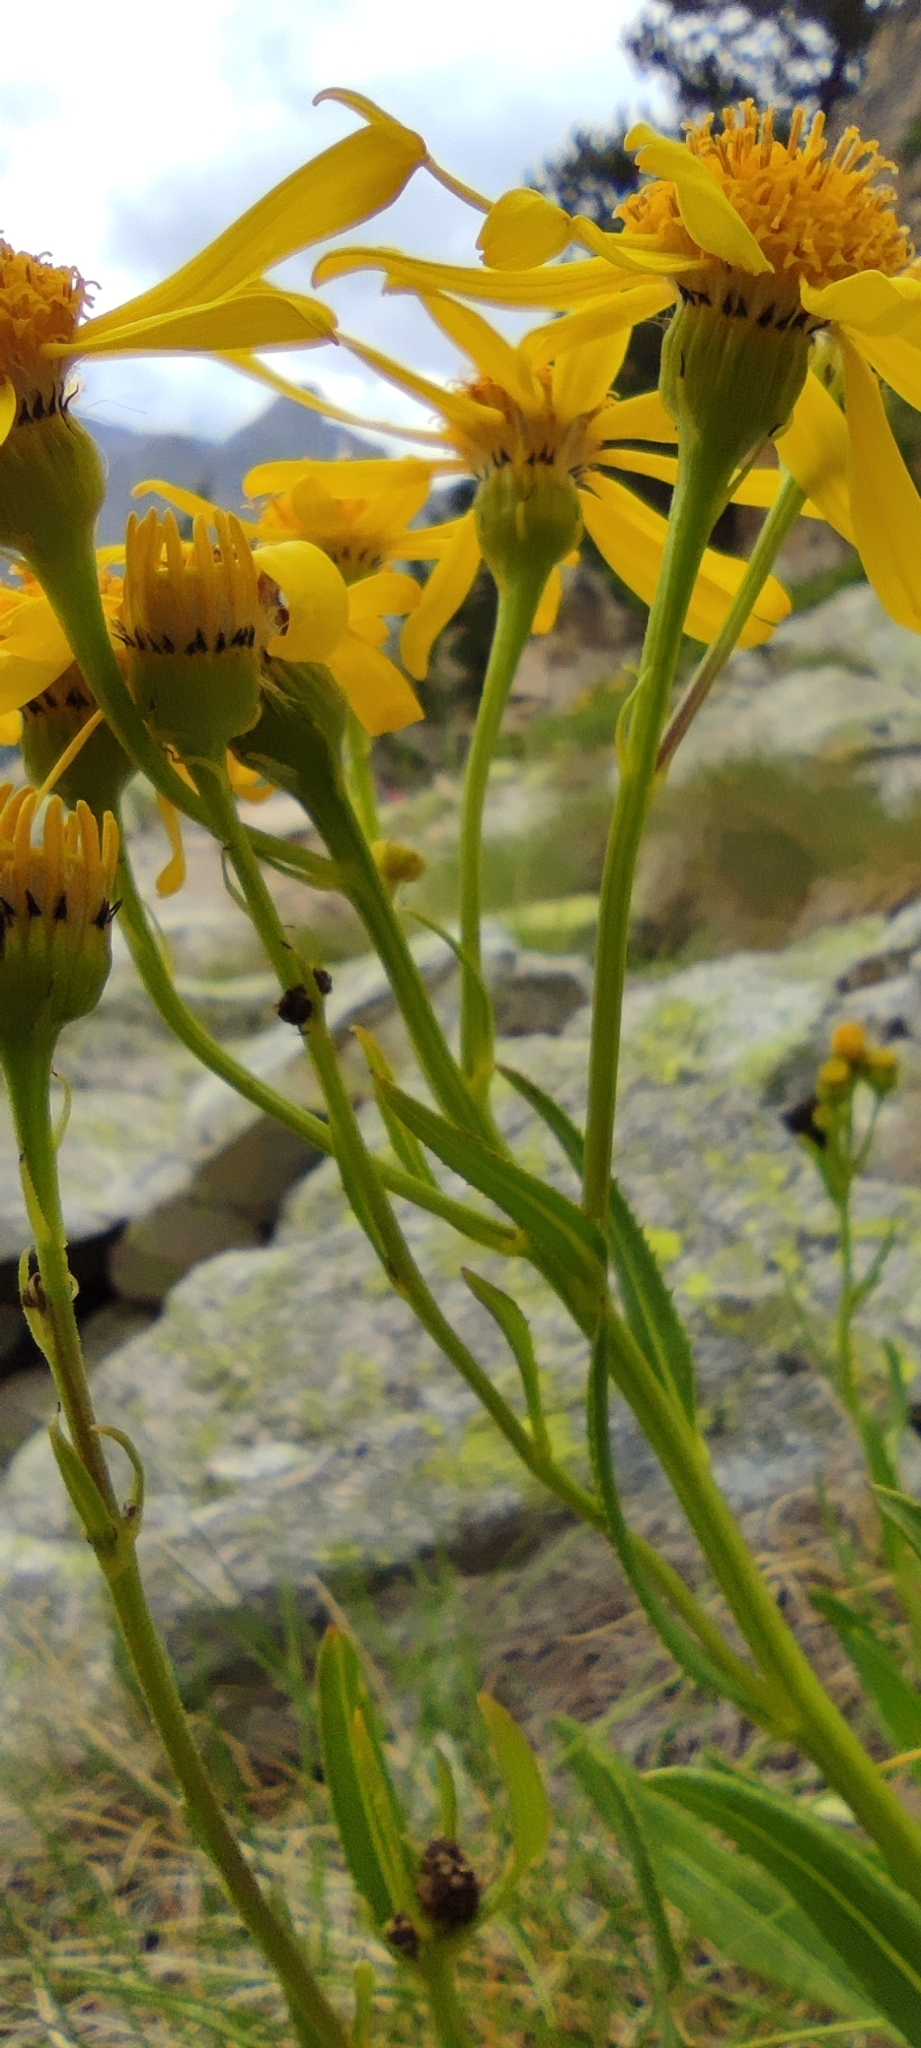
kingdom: Plantae
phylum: Tracheophyta
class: Magnoliopsida
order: Asterales
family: Asteraceae
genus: Senecio
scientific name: Senecio pyrenaicus
